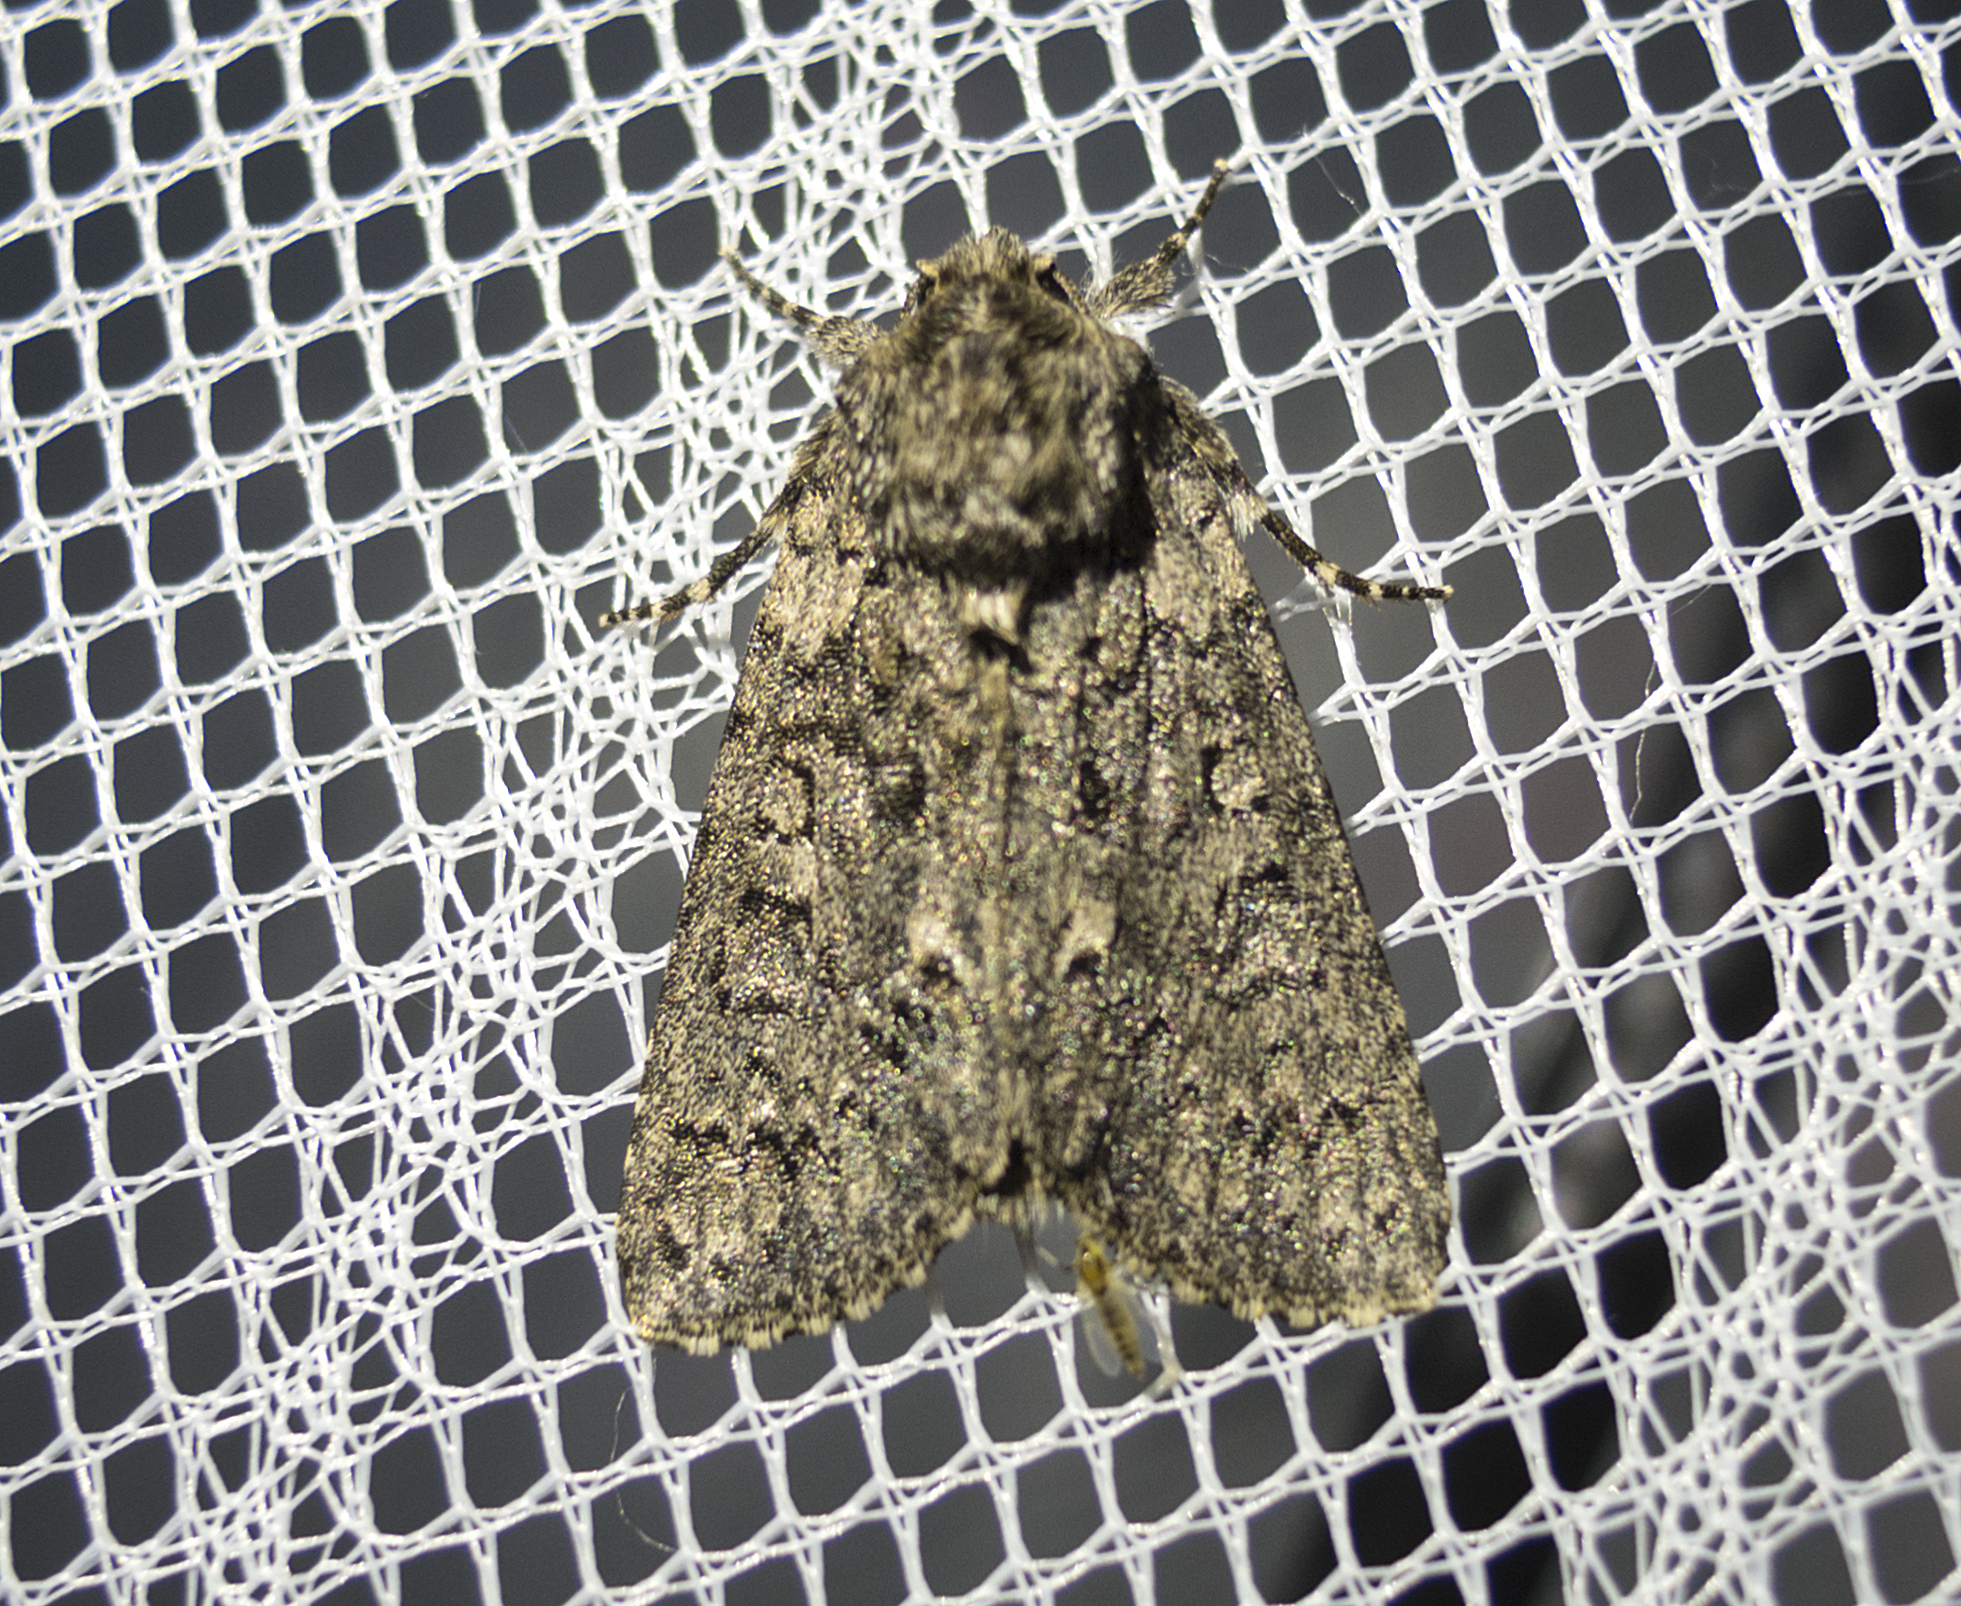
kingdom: Animalia
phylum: Arthropoda
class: Insecta
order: Lepidoptera
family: Noctuidae
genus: Acronicta
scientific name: Acronicta rumicis
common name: Knot grass
